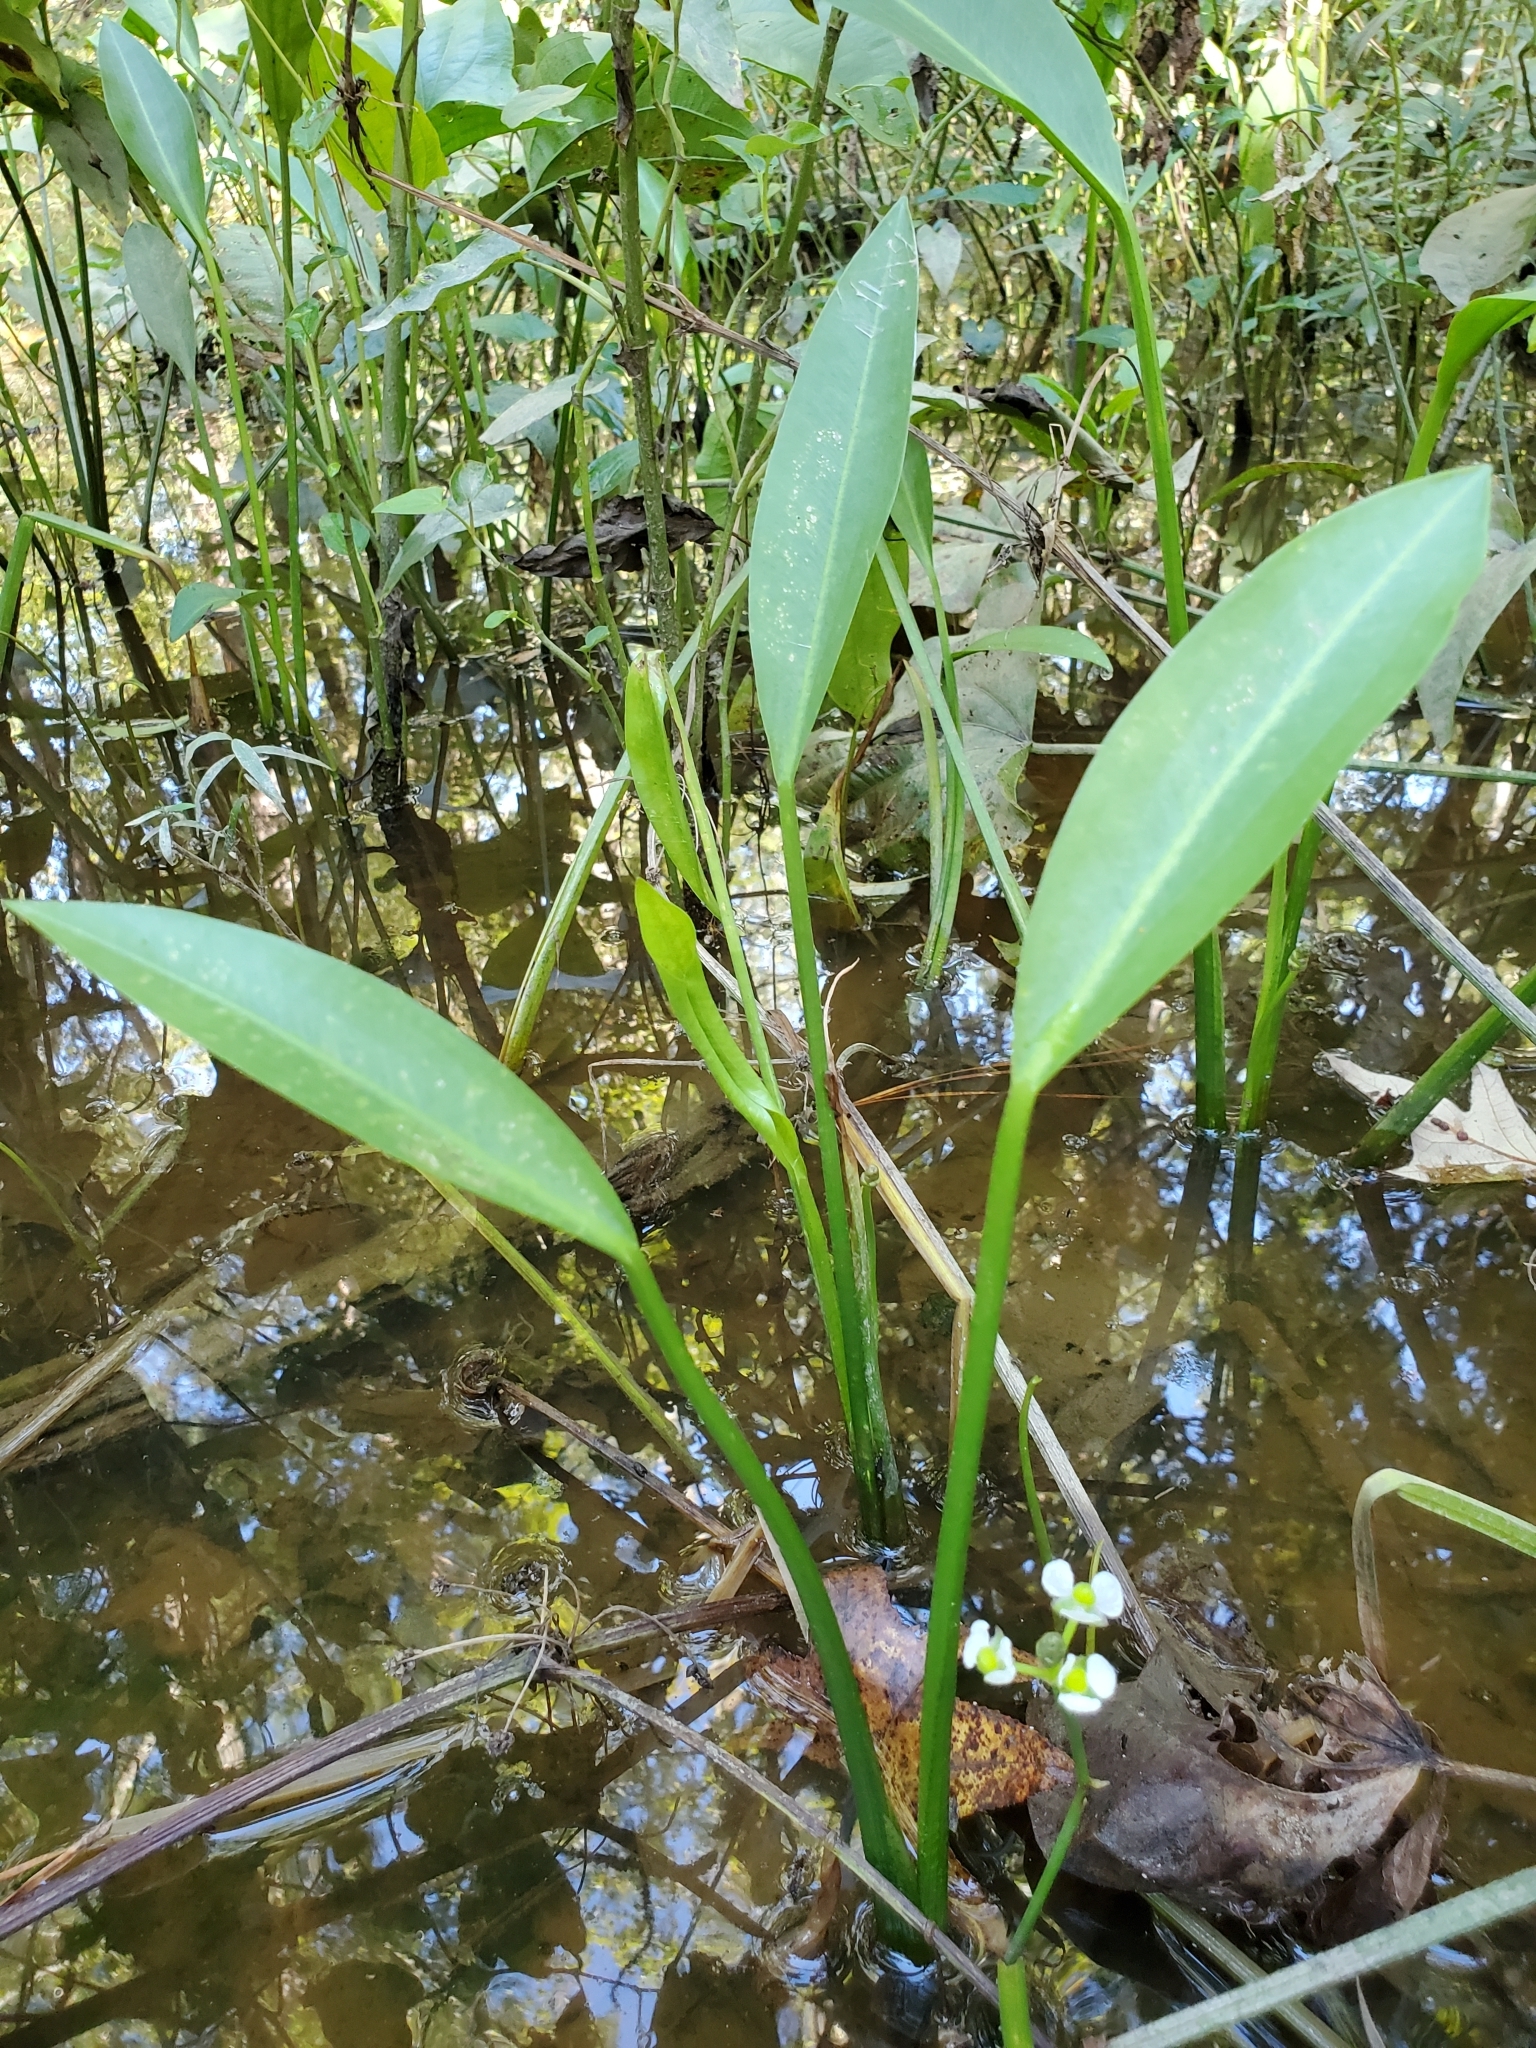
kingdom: Plantae
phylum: Tracheophyta
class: Liliopsida
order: Alismatales
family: Alismataceae
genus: Sagittaria
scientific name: Sagittaria platyphylla
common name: Broad-leaf arrowhead
